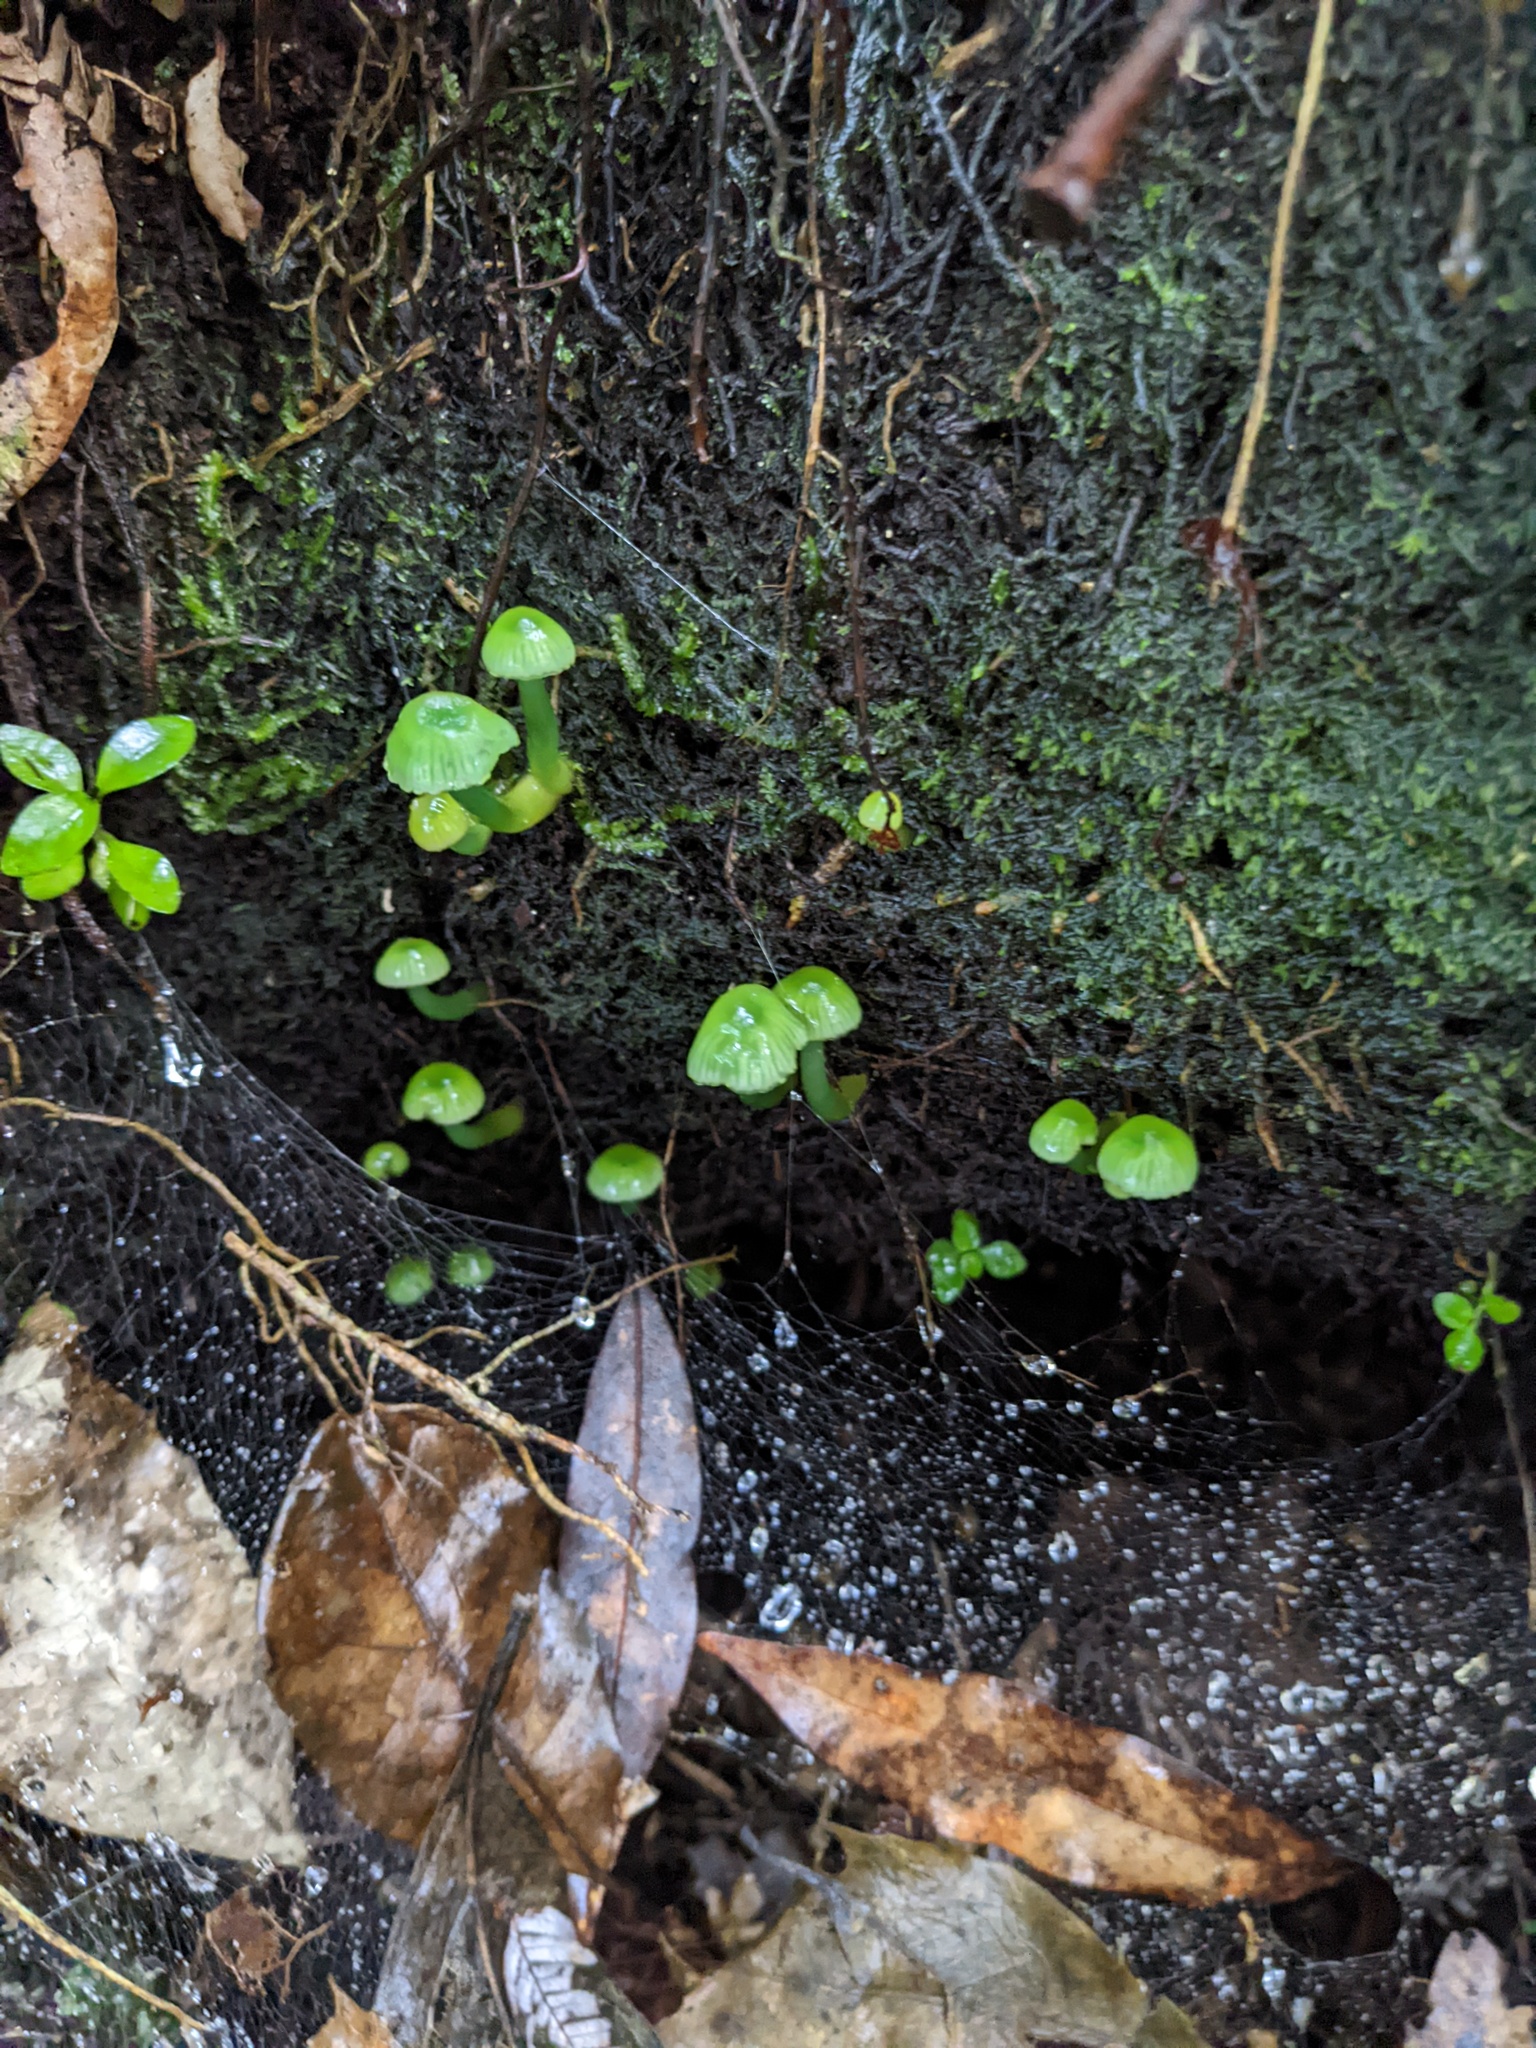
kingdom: Fungi
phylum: Basidiomycota
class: Agaricomycetes
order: Agaricales
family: Hygrophoraceae
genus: Gliophorus
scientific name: Gliophorus viridis
